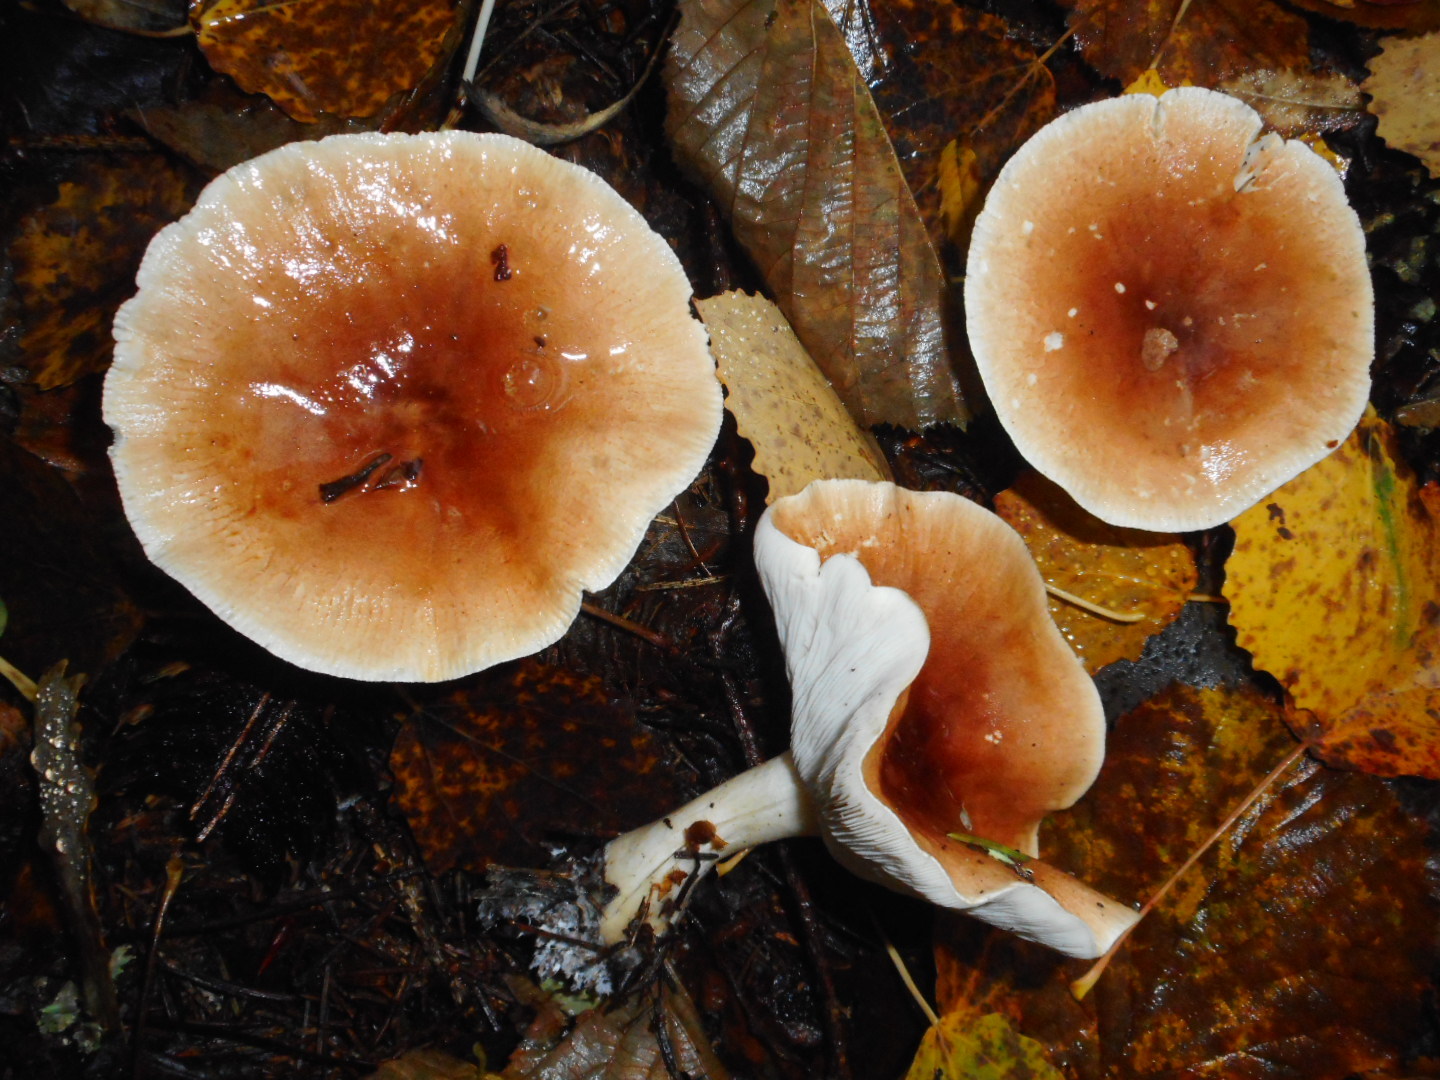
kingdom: Fungi
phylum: Basidiomycota
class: Agaricomycetes
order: Agaricales
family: Tricholomataceae
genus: Leucopaxillus
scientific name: Leucopaxillus gentianeus
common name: Bitter funnel
